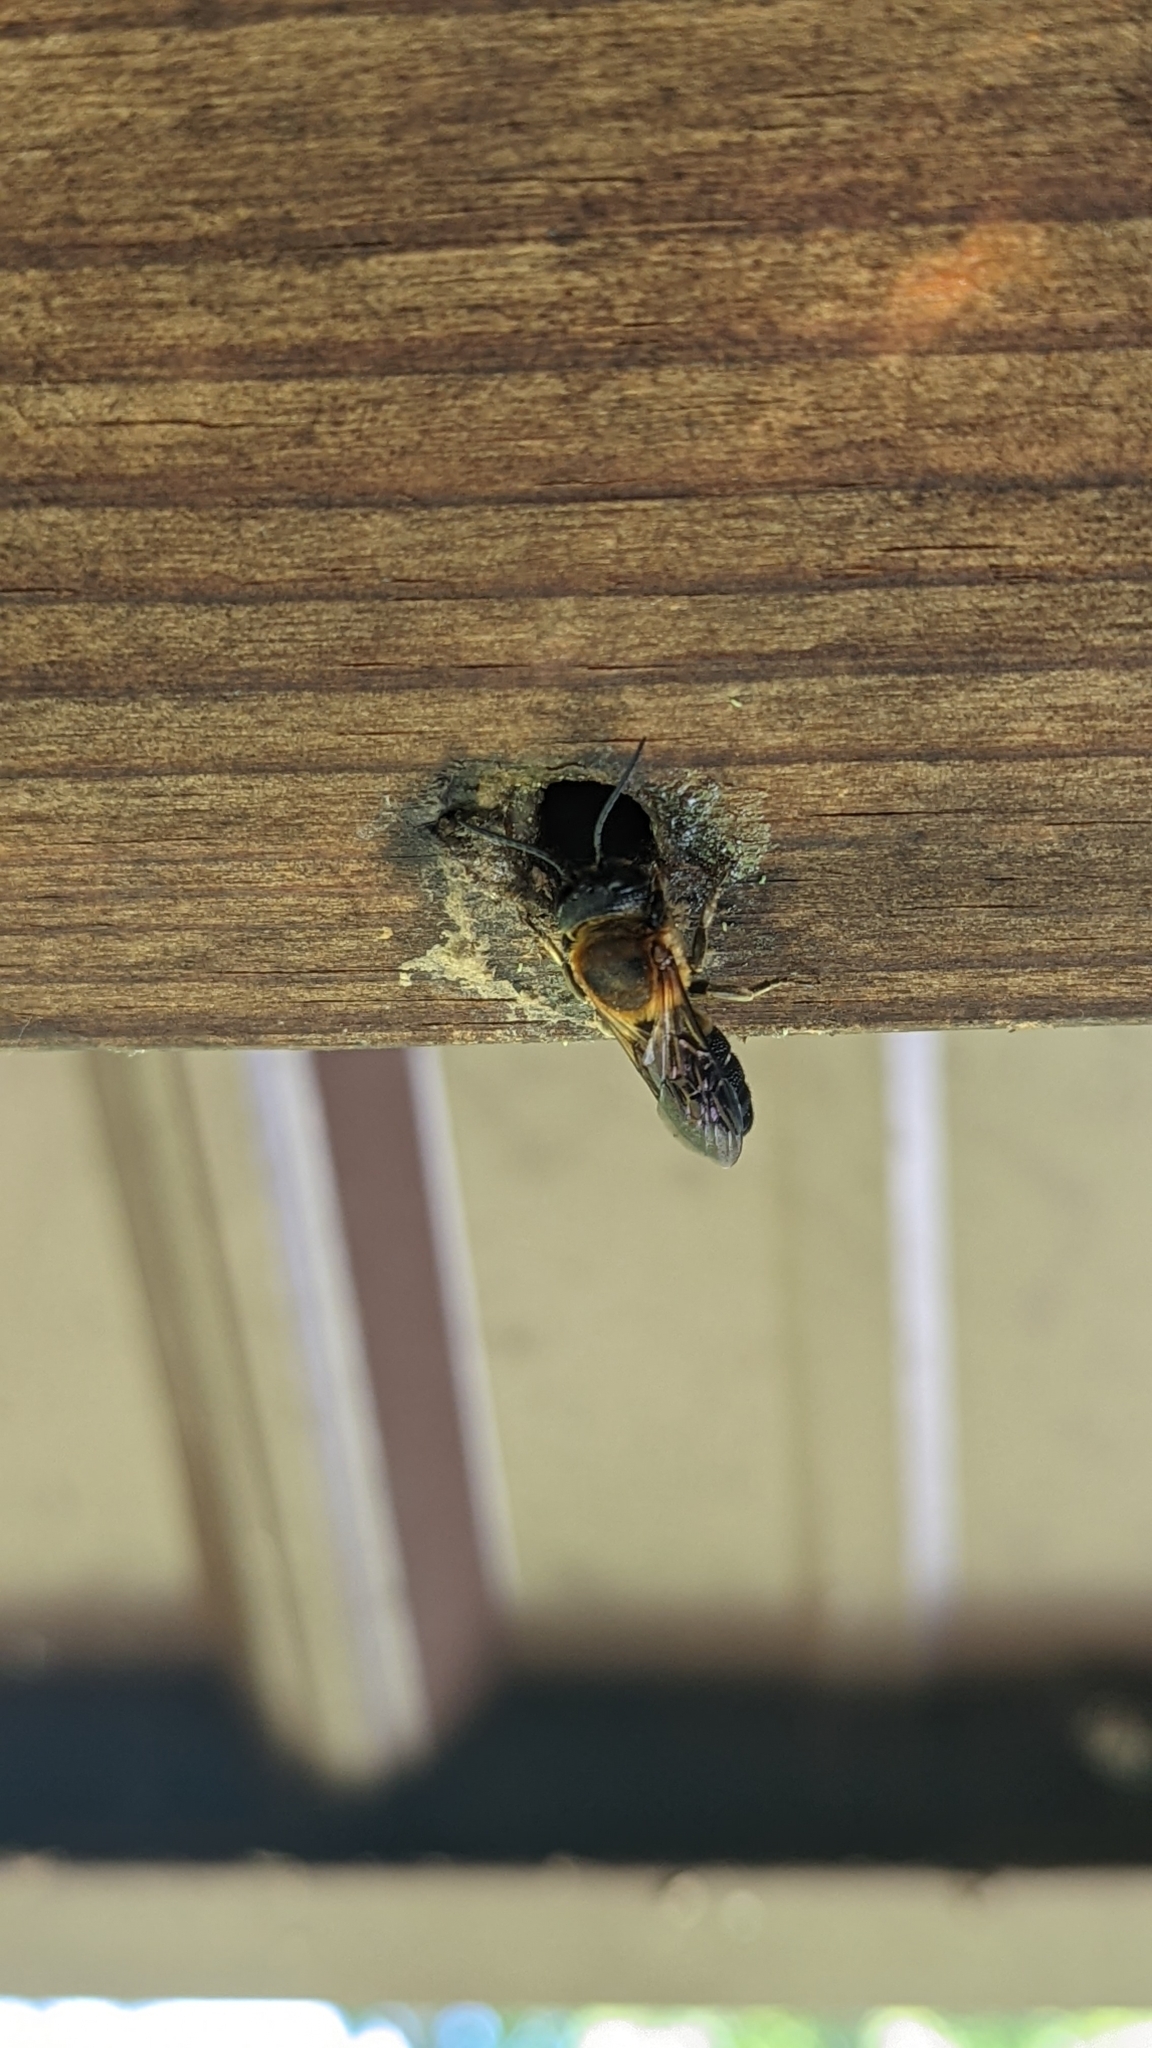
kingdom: Animalia
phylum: Arthropoda
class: Insecta
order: Hymenoptera
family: Megachilidae
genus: Megachile
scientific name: Megachile sculpturalis
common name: Sculptured resin bee
